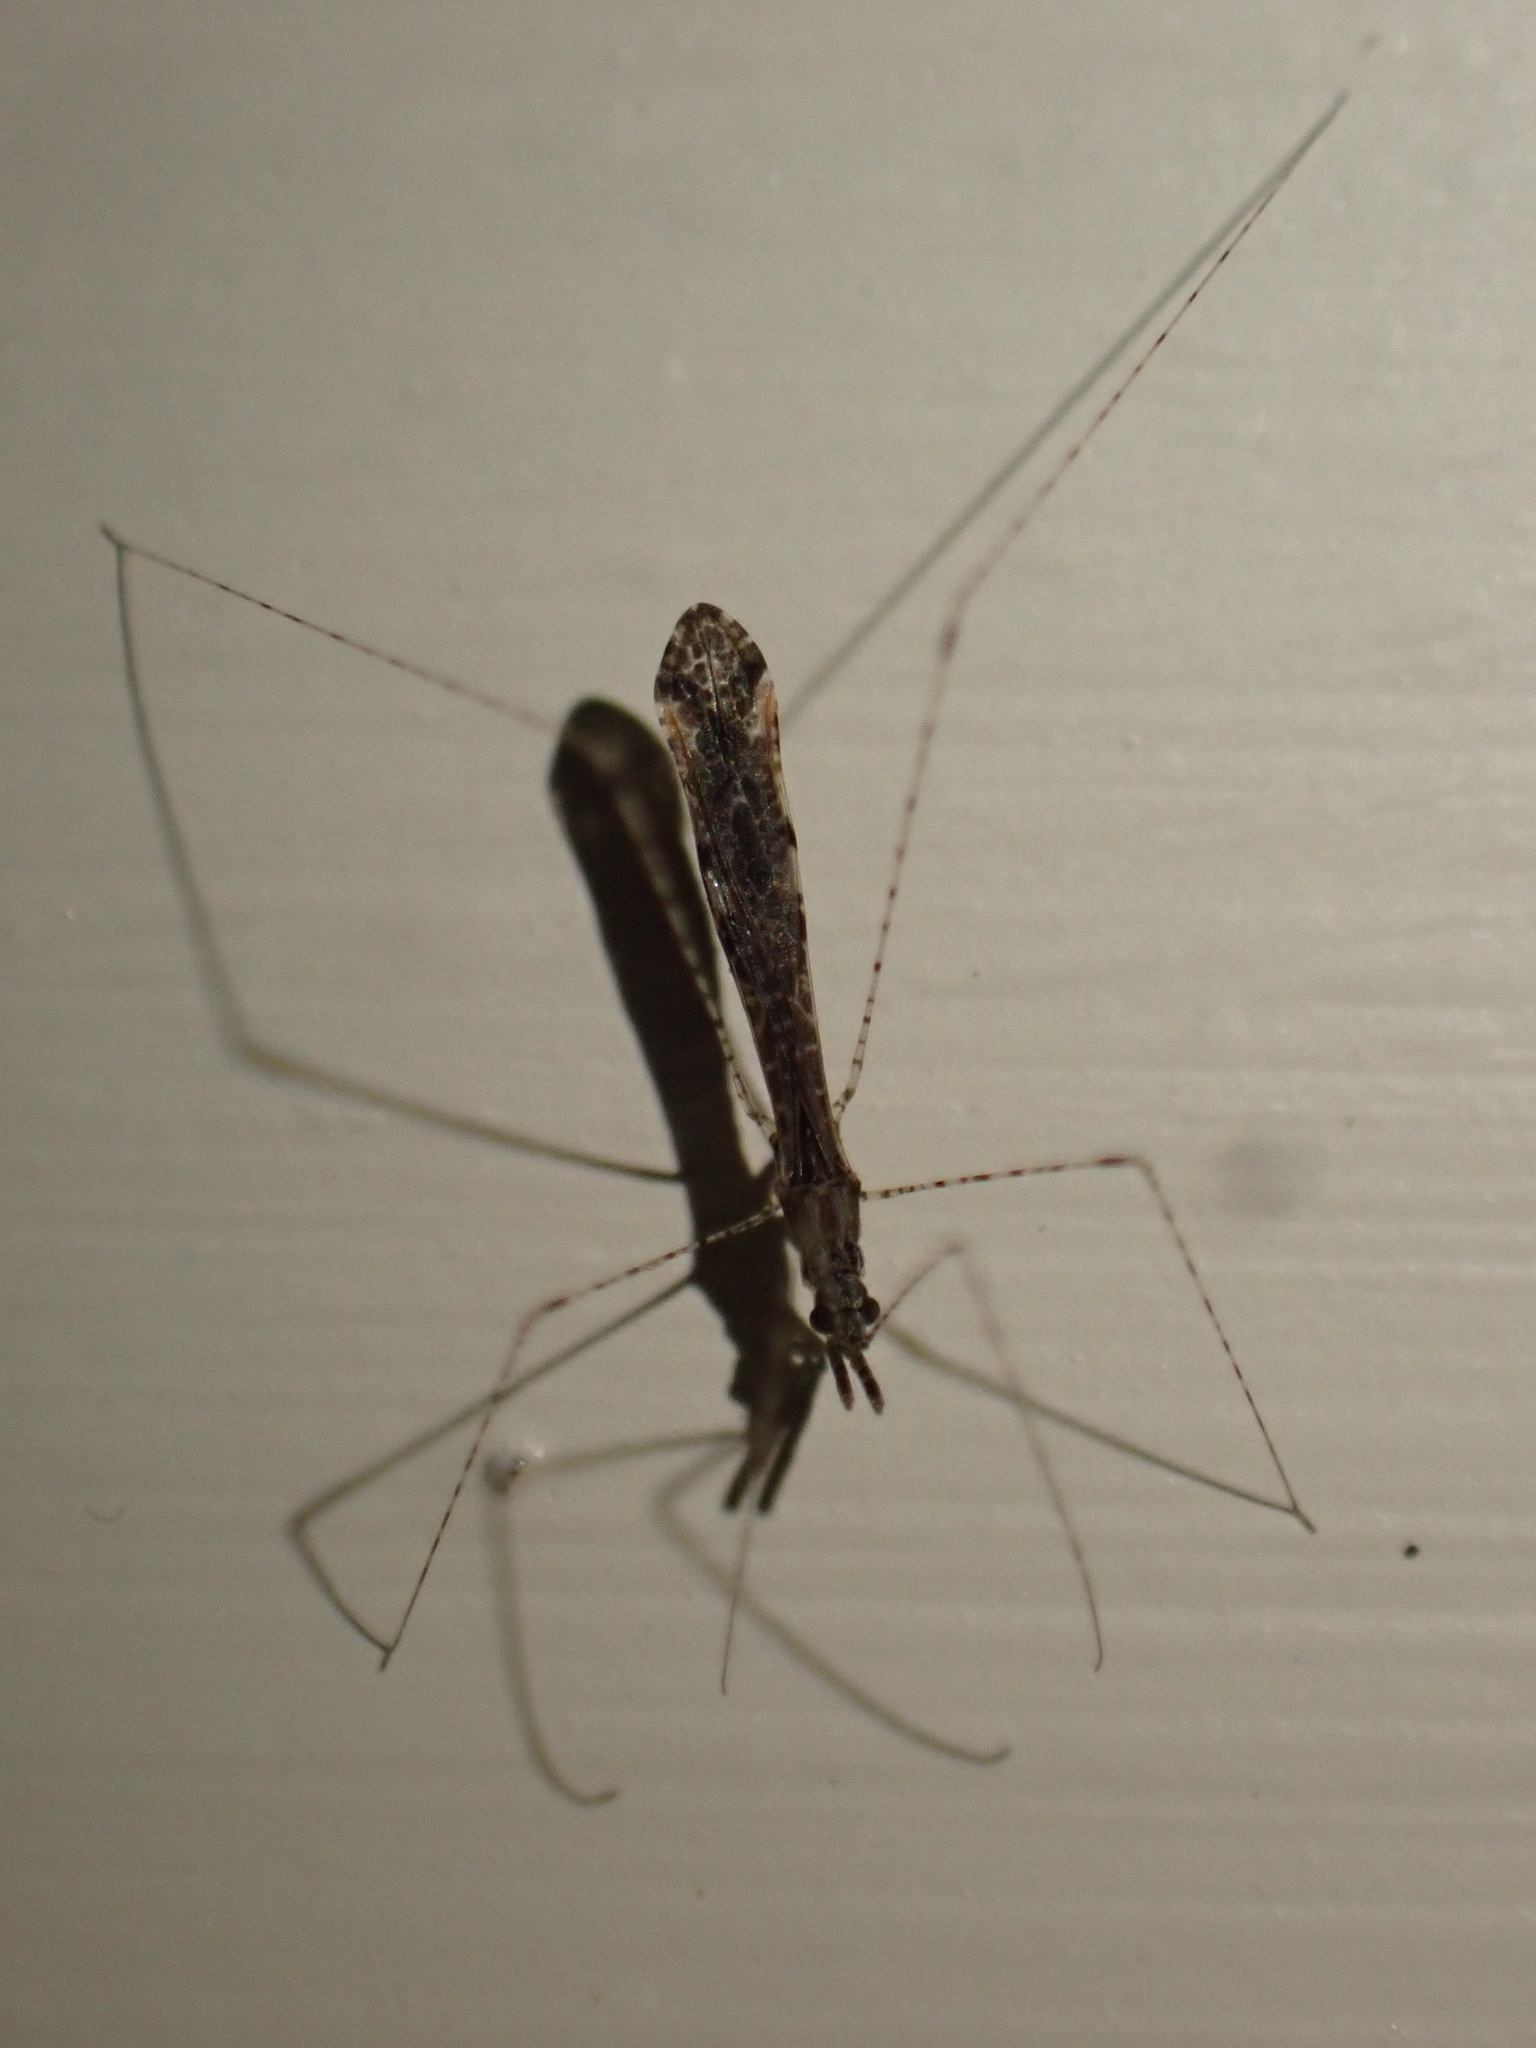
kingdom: Animalia
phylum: Arthropoda
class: Insecta
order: Hemiptera
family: Reduviidae
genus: Empicoris
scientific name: Empicoris rubromaculatus
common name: Thread-legged bug
